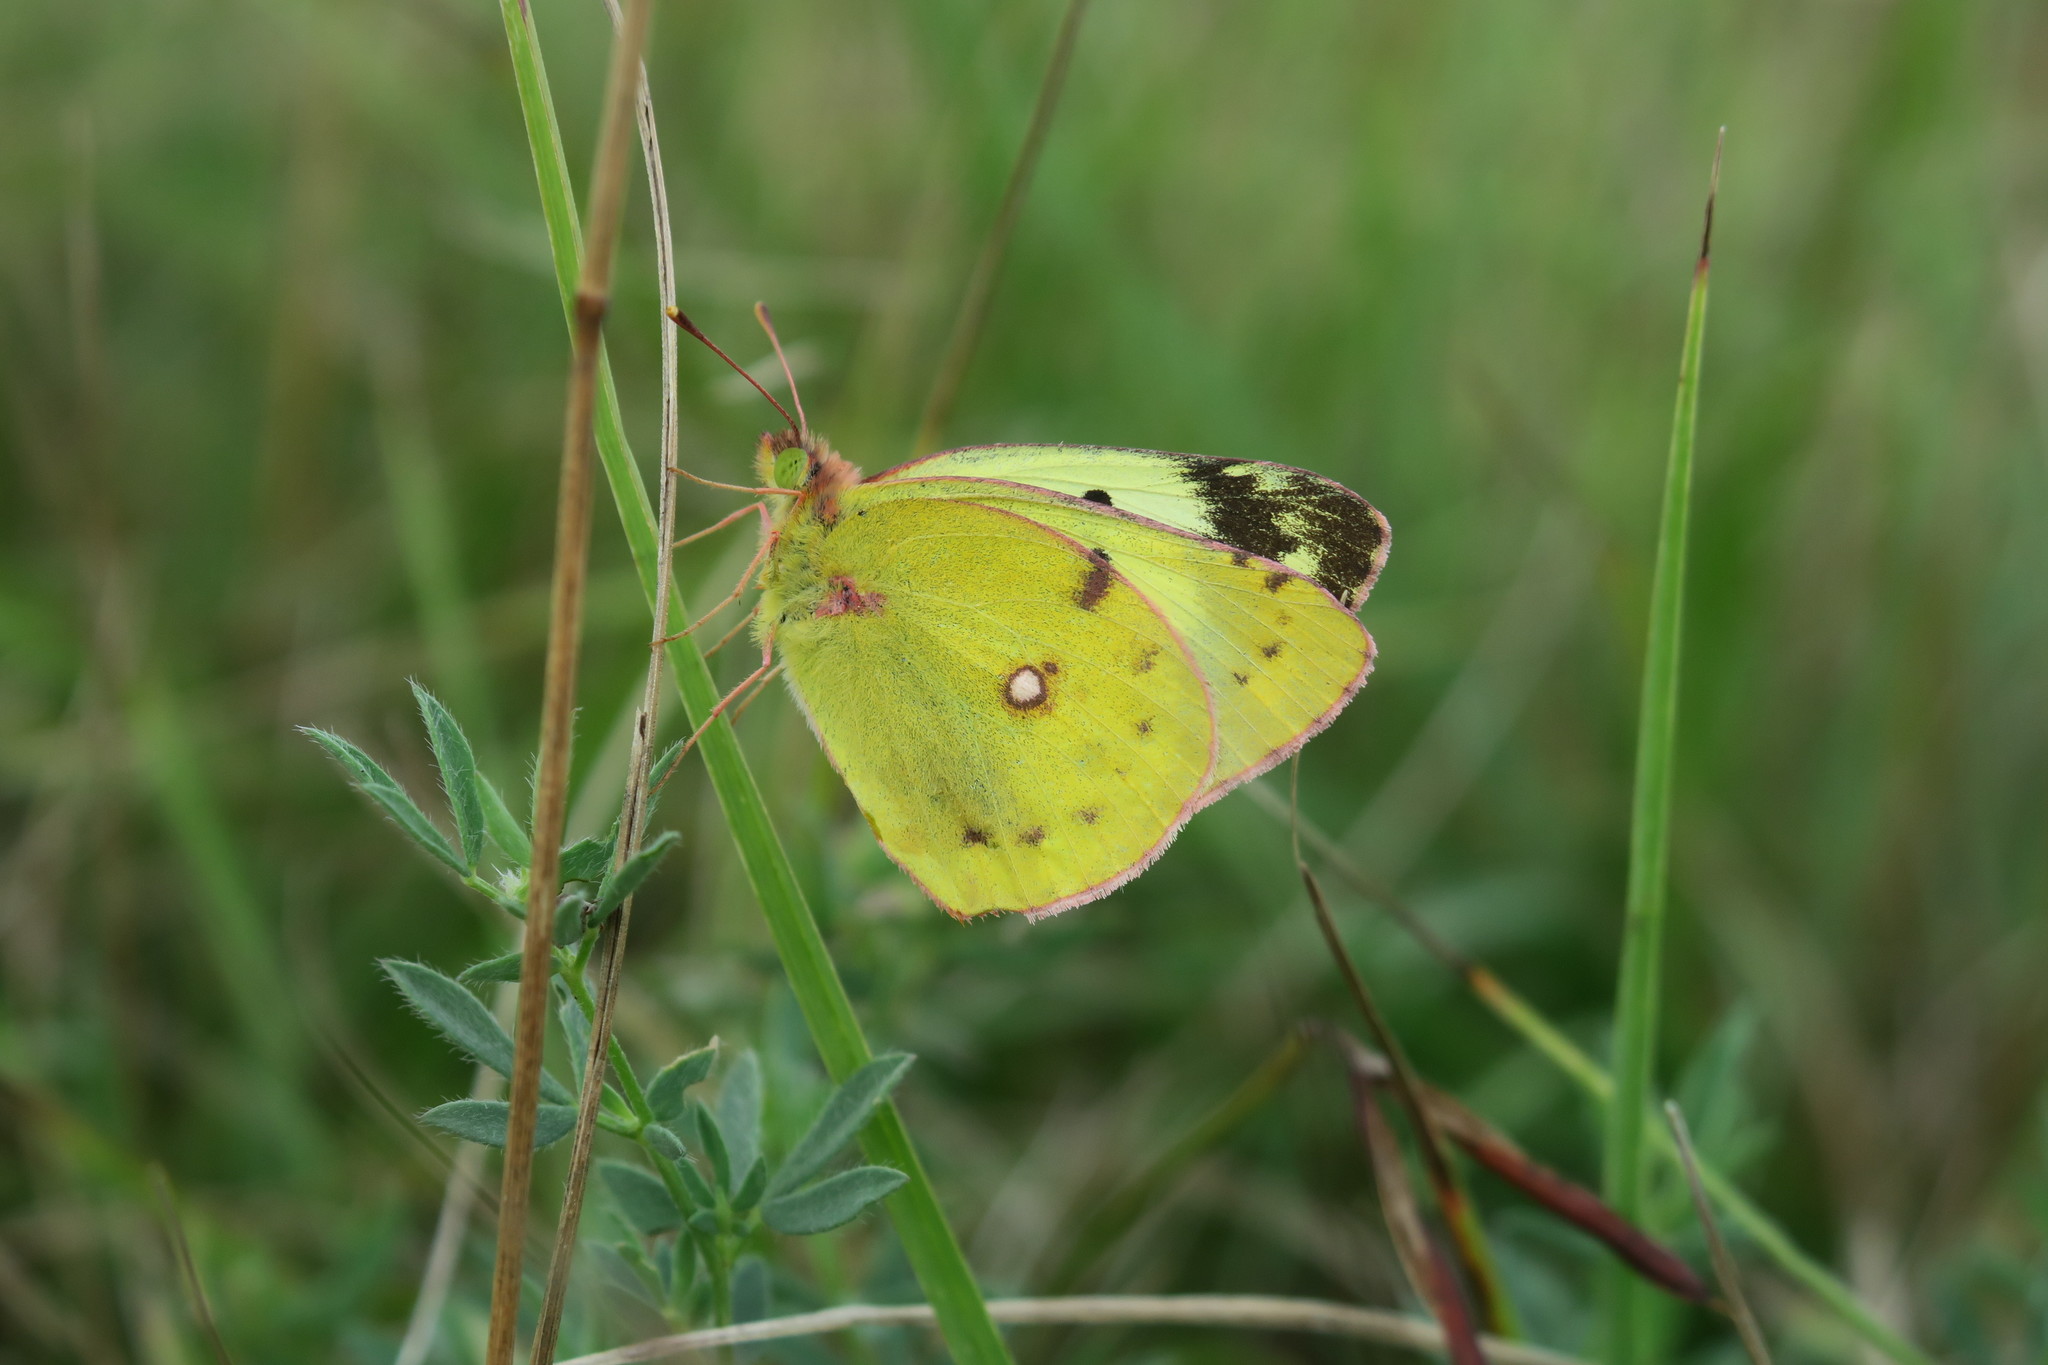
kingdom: Animalia
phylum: Arthropoda
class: Insecta
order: Lepidoptera
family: Pieridae
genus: Colias
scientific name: Colias alfacariensis
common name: Berger's clouded yellow
